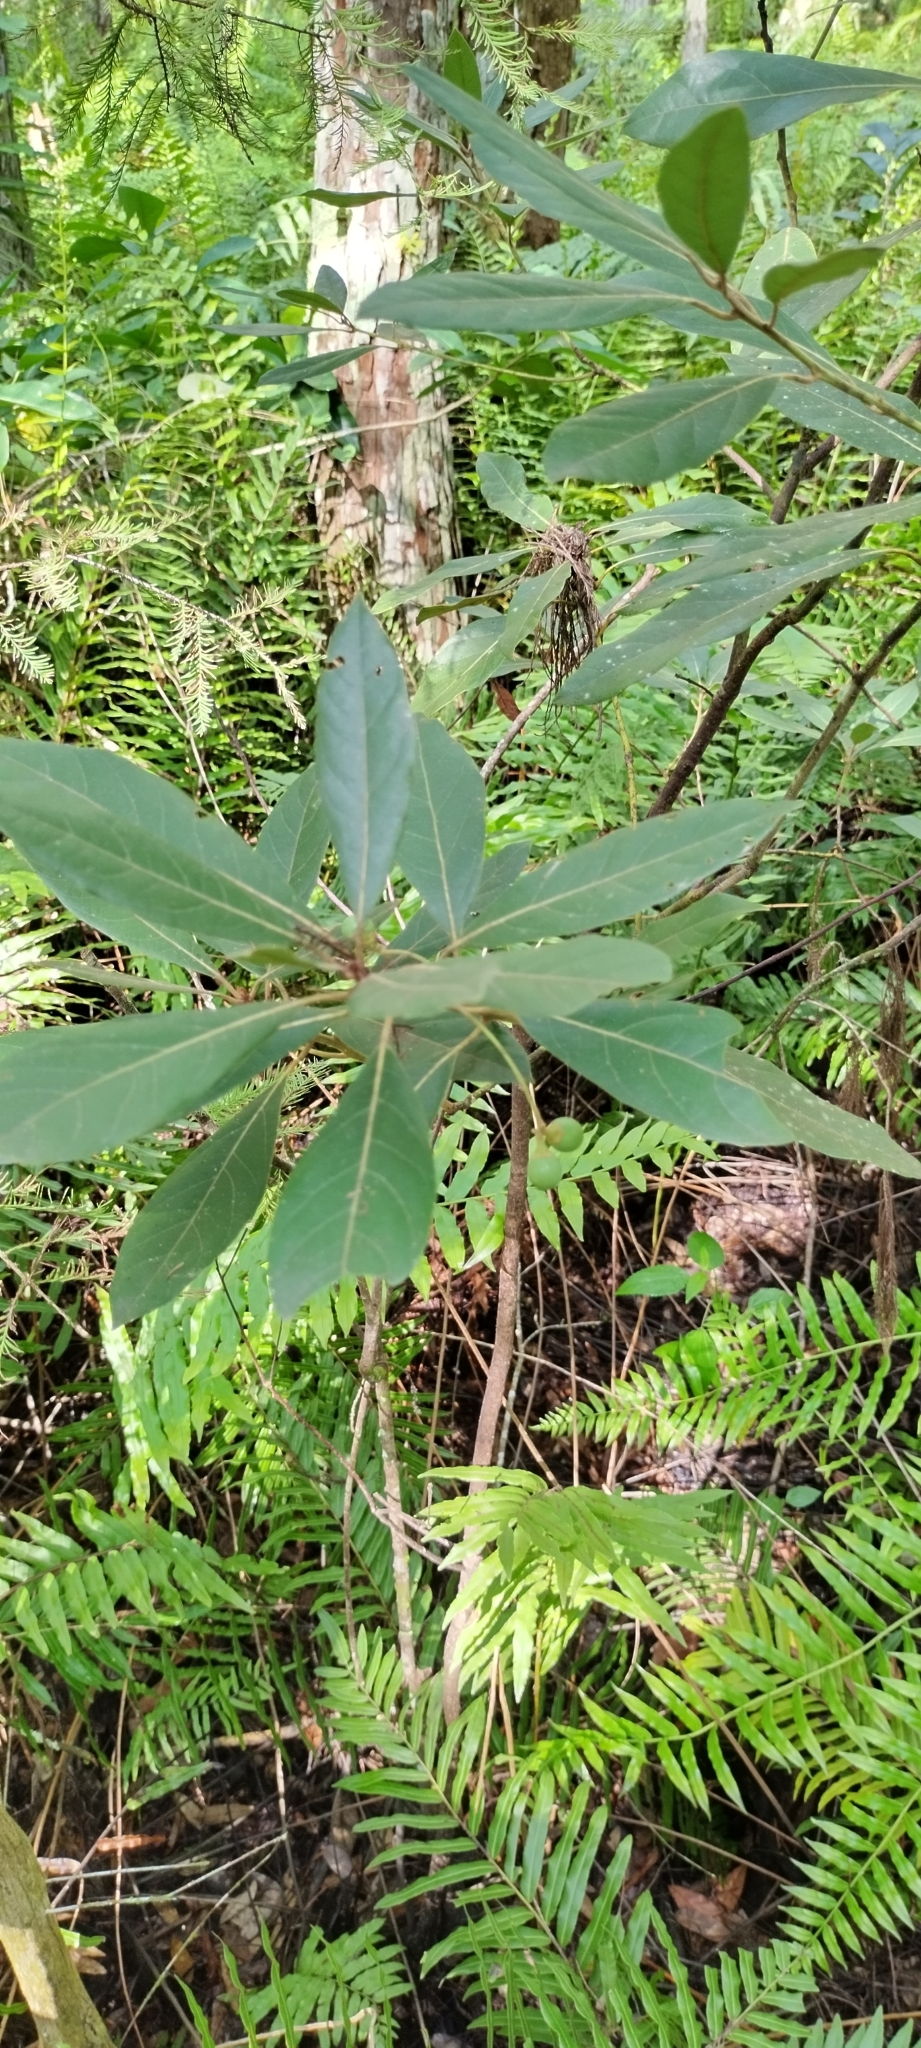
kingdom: Plantae
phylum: Tracheophyta
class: Magnoliopsida
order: Laurales
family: Lauraceae
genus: Persea
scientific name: Persea palustris
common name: Swampbay
